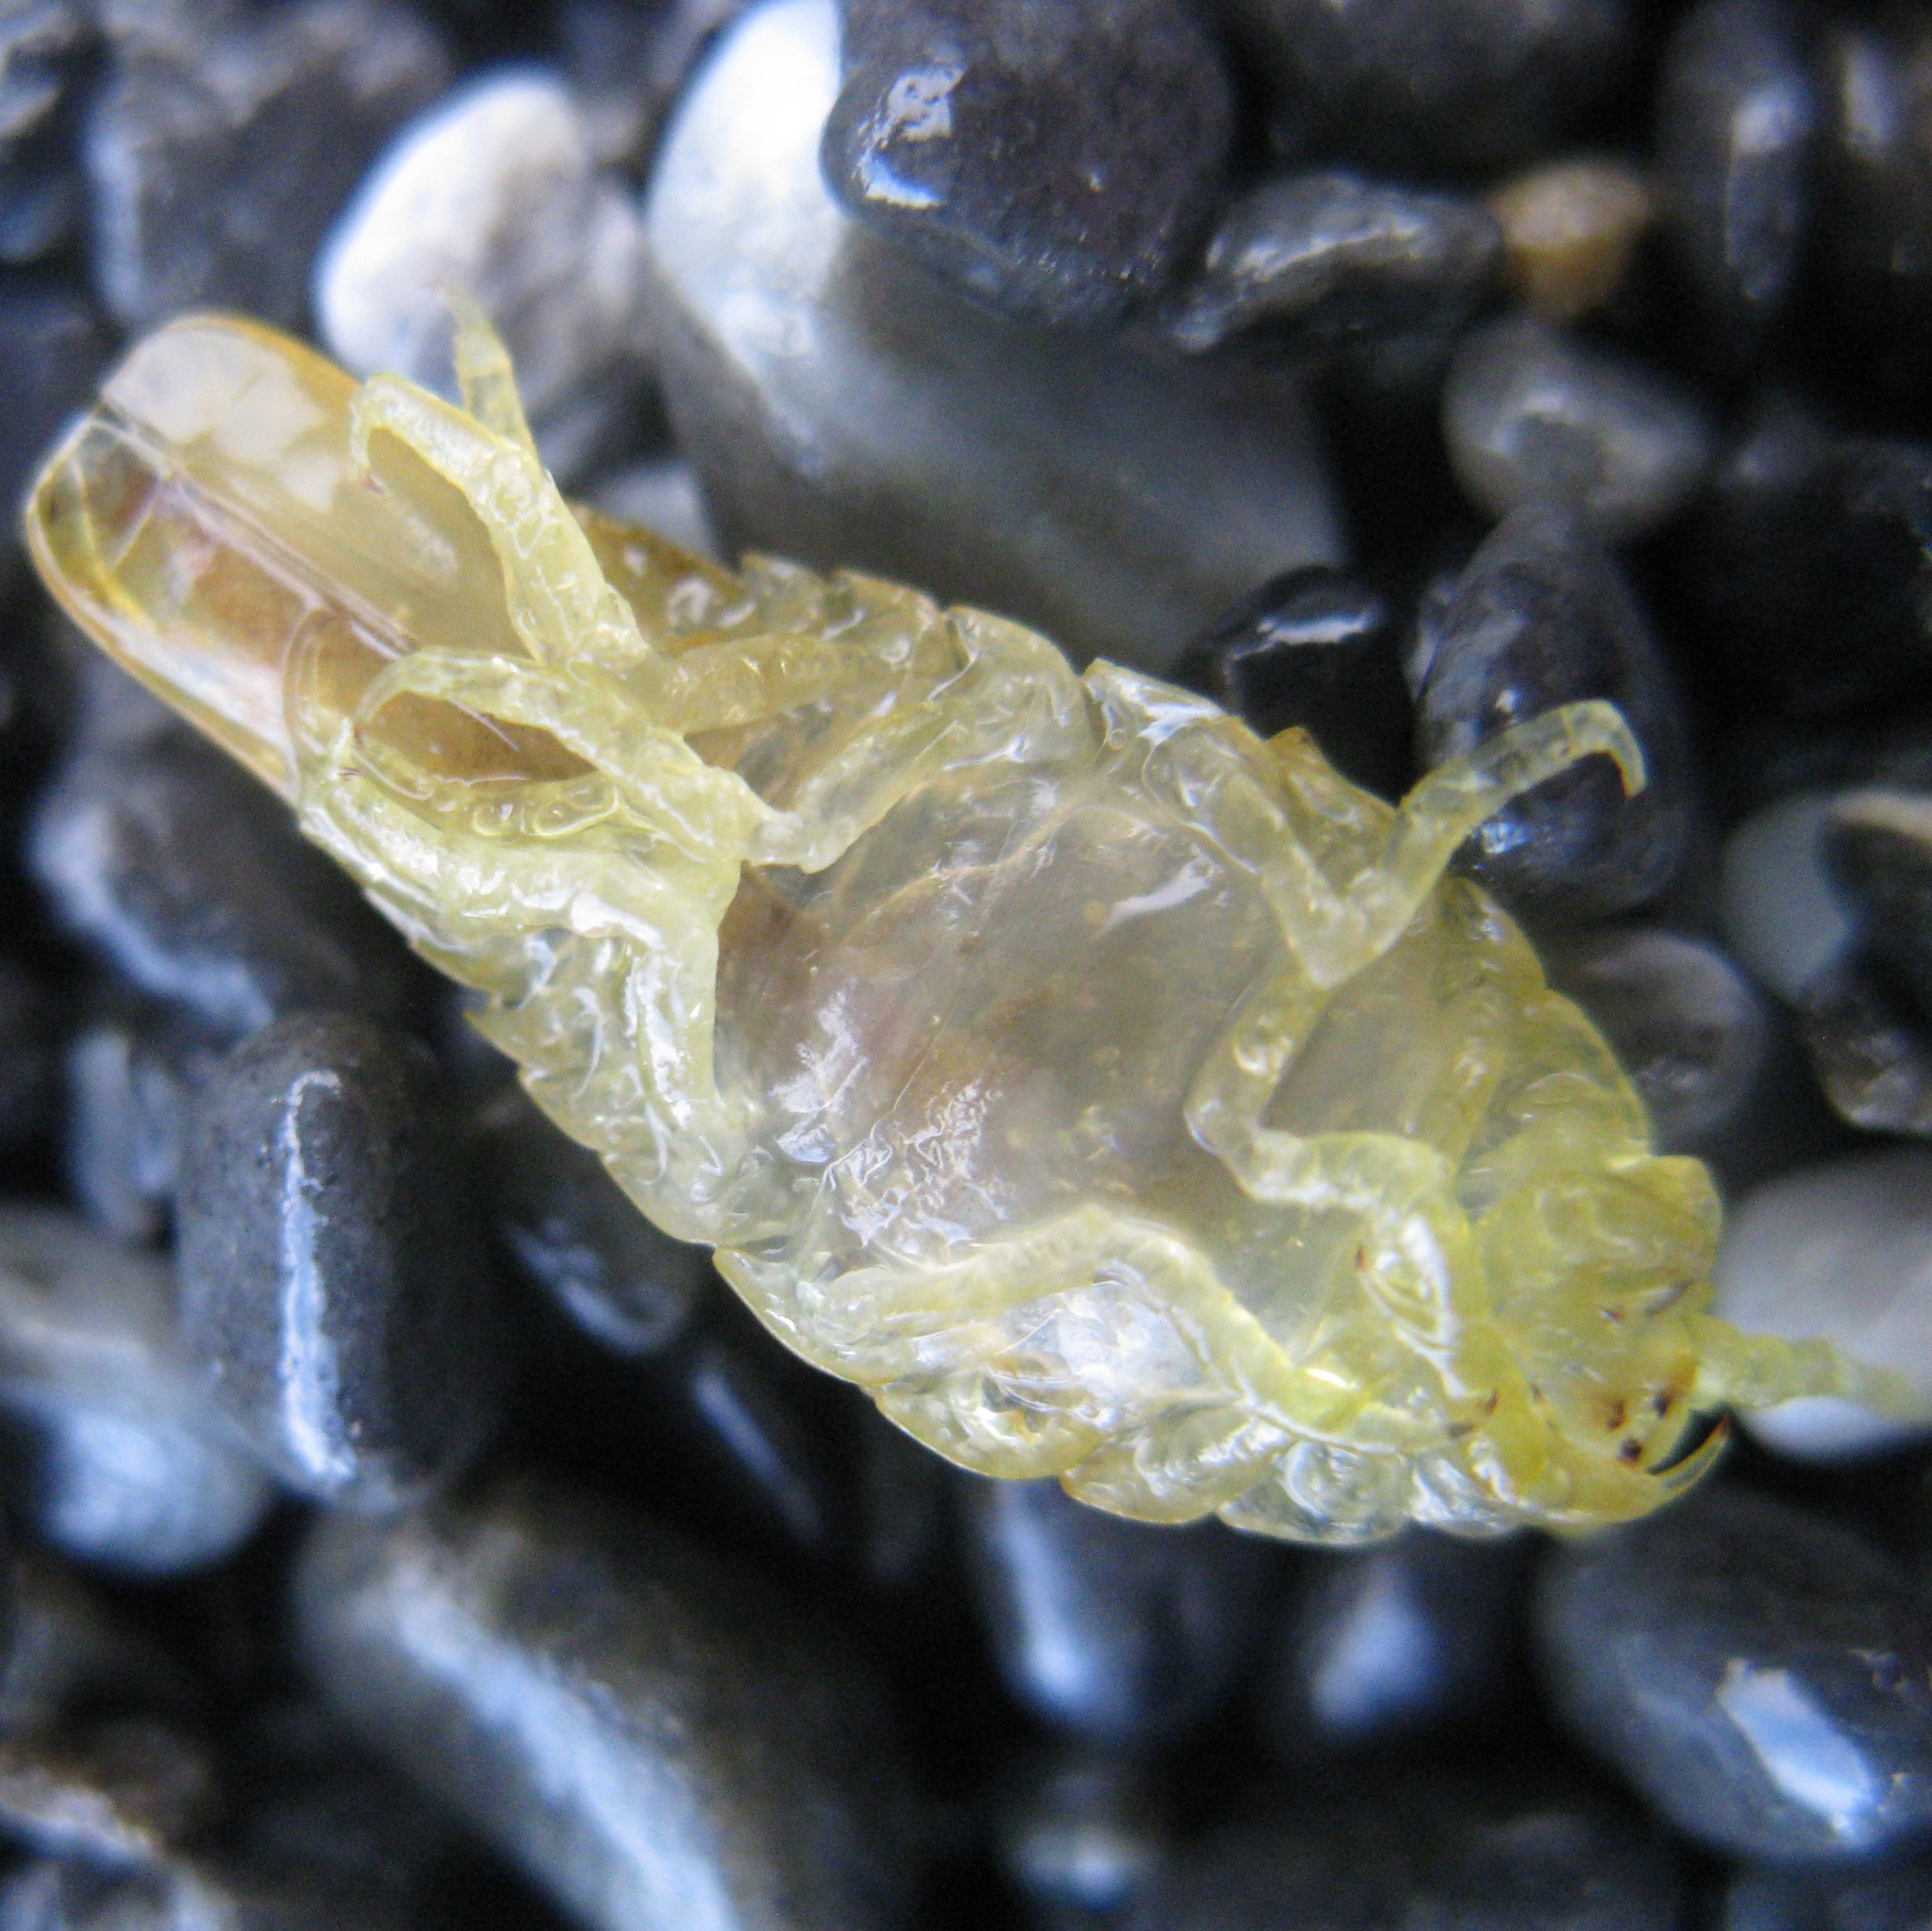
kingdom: Animalia
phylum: Arthropoda
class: Malacostraca
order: Isopoda
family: Idoteidae
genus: Idotea
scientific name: Idotea metallica
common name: Metallic marine isopod
